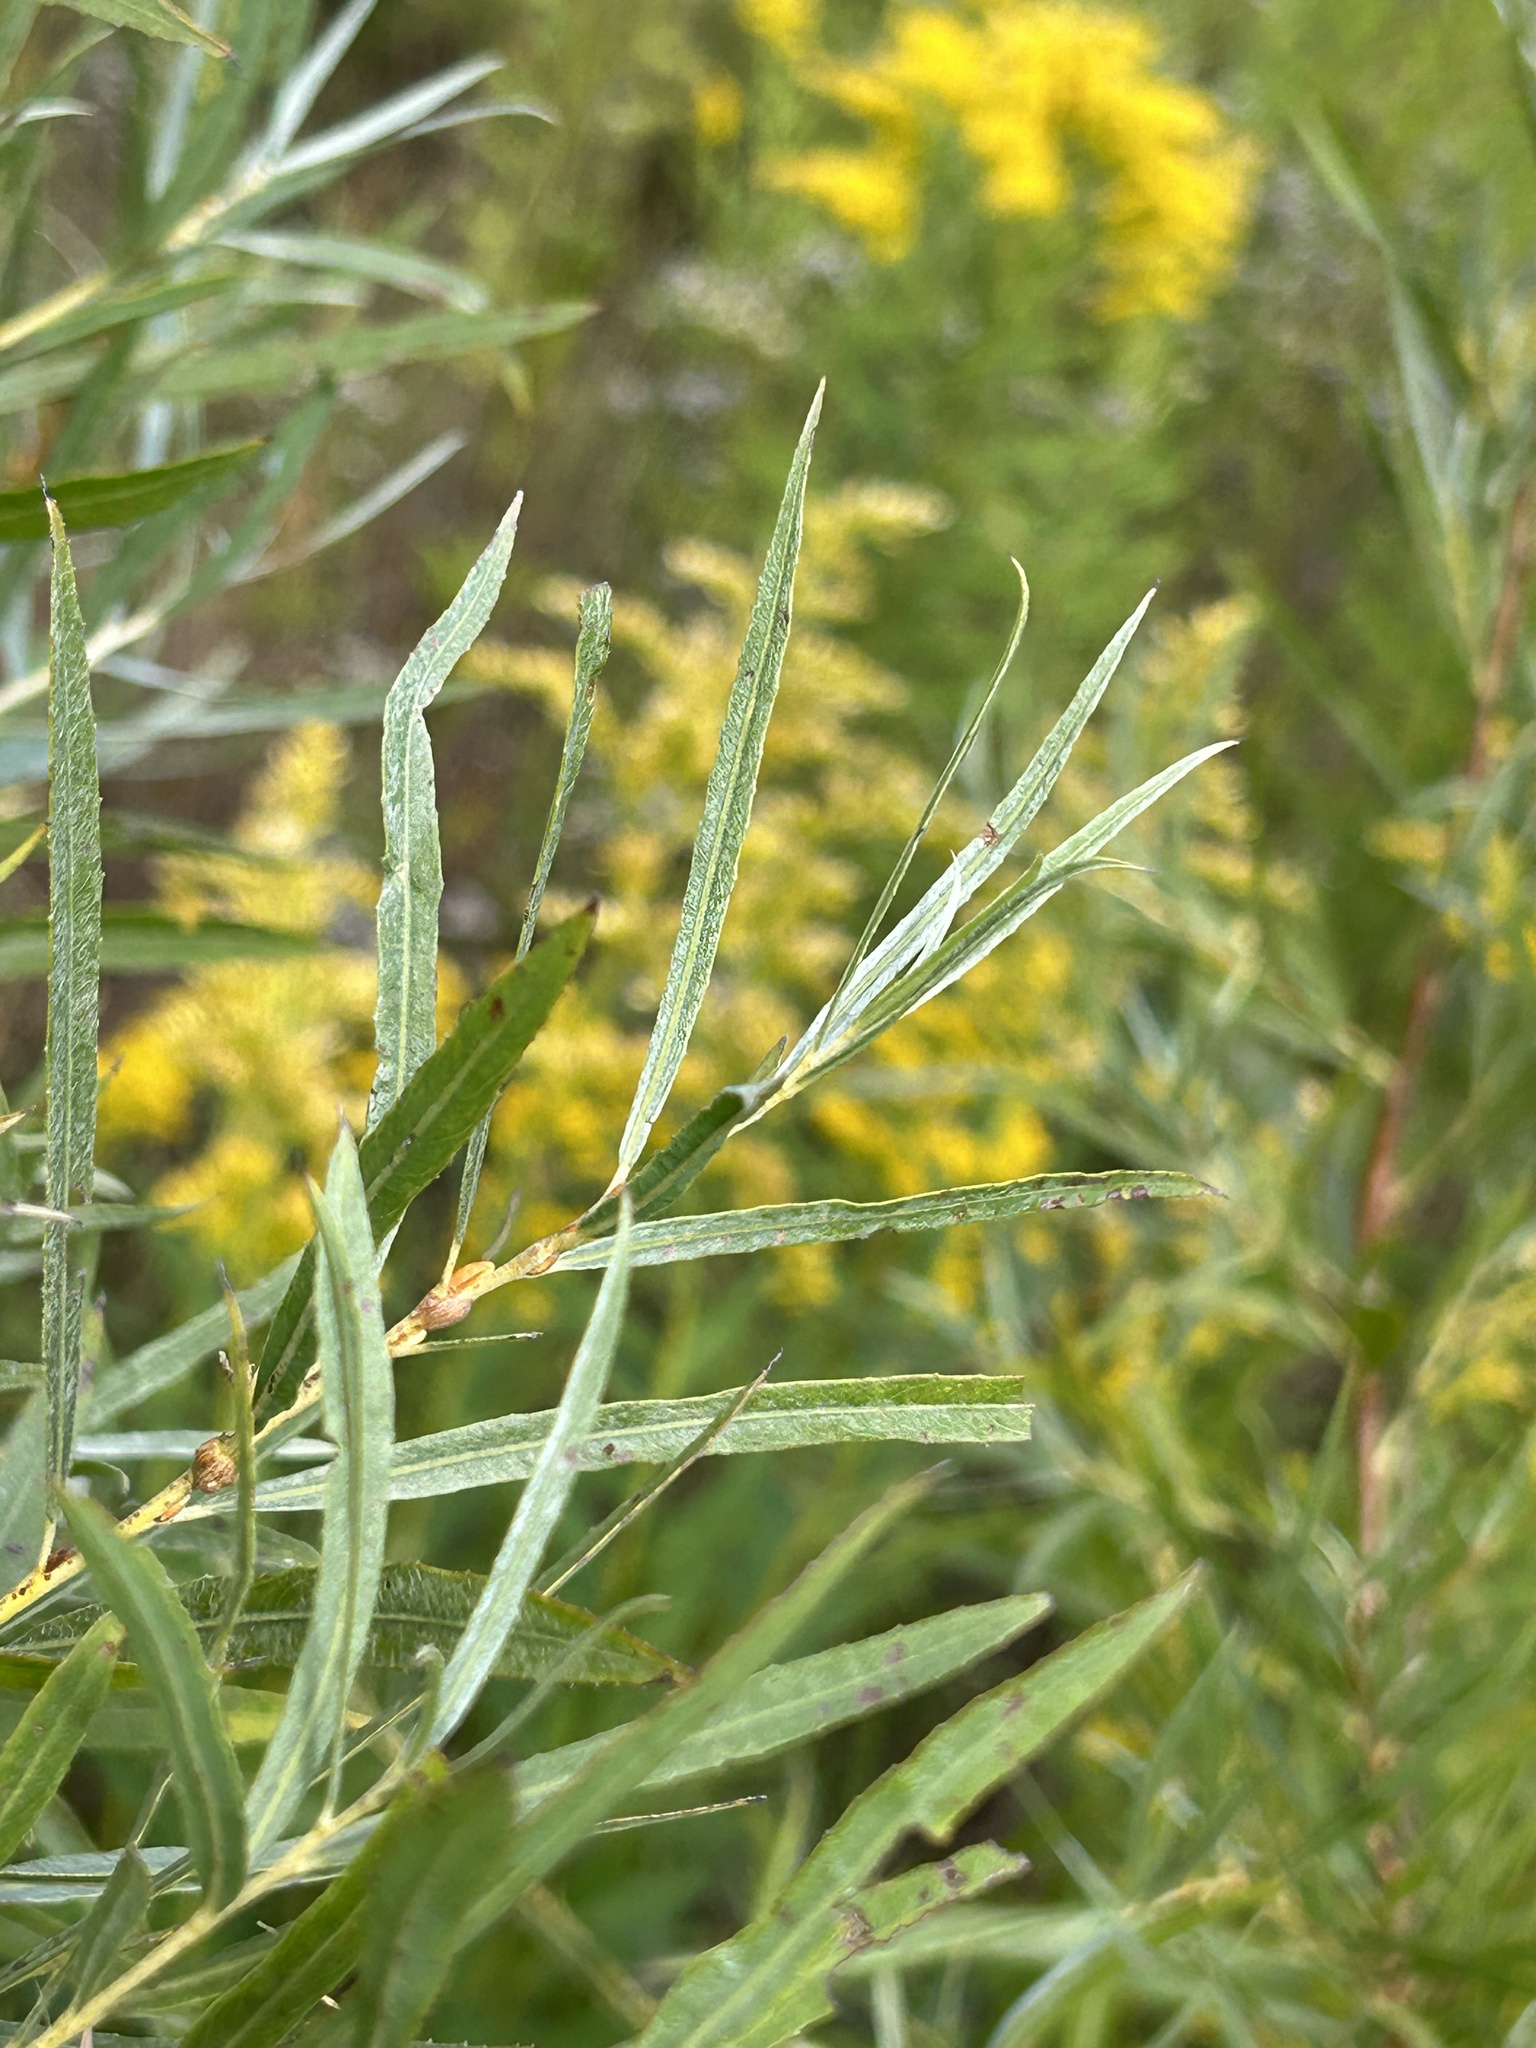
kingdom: Plantae
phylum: Tracheophyta
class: Magnoliopsida
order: Malpighiales
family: Salicaceae
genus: Salix
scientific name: Salix interior
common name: Sandbar willow
